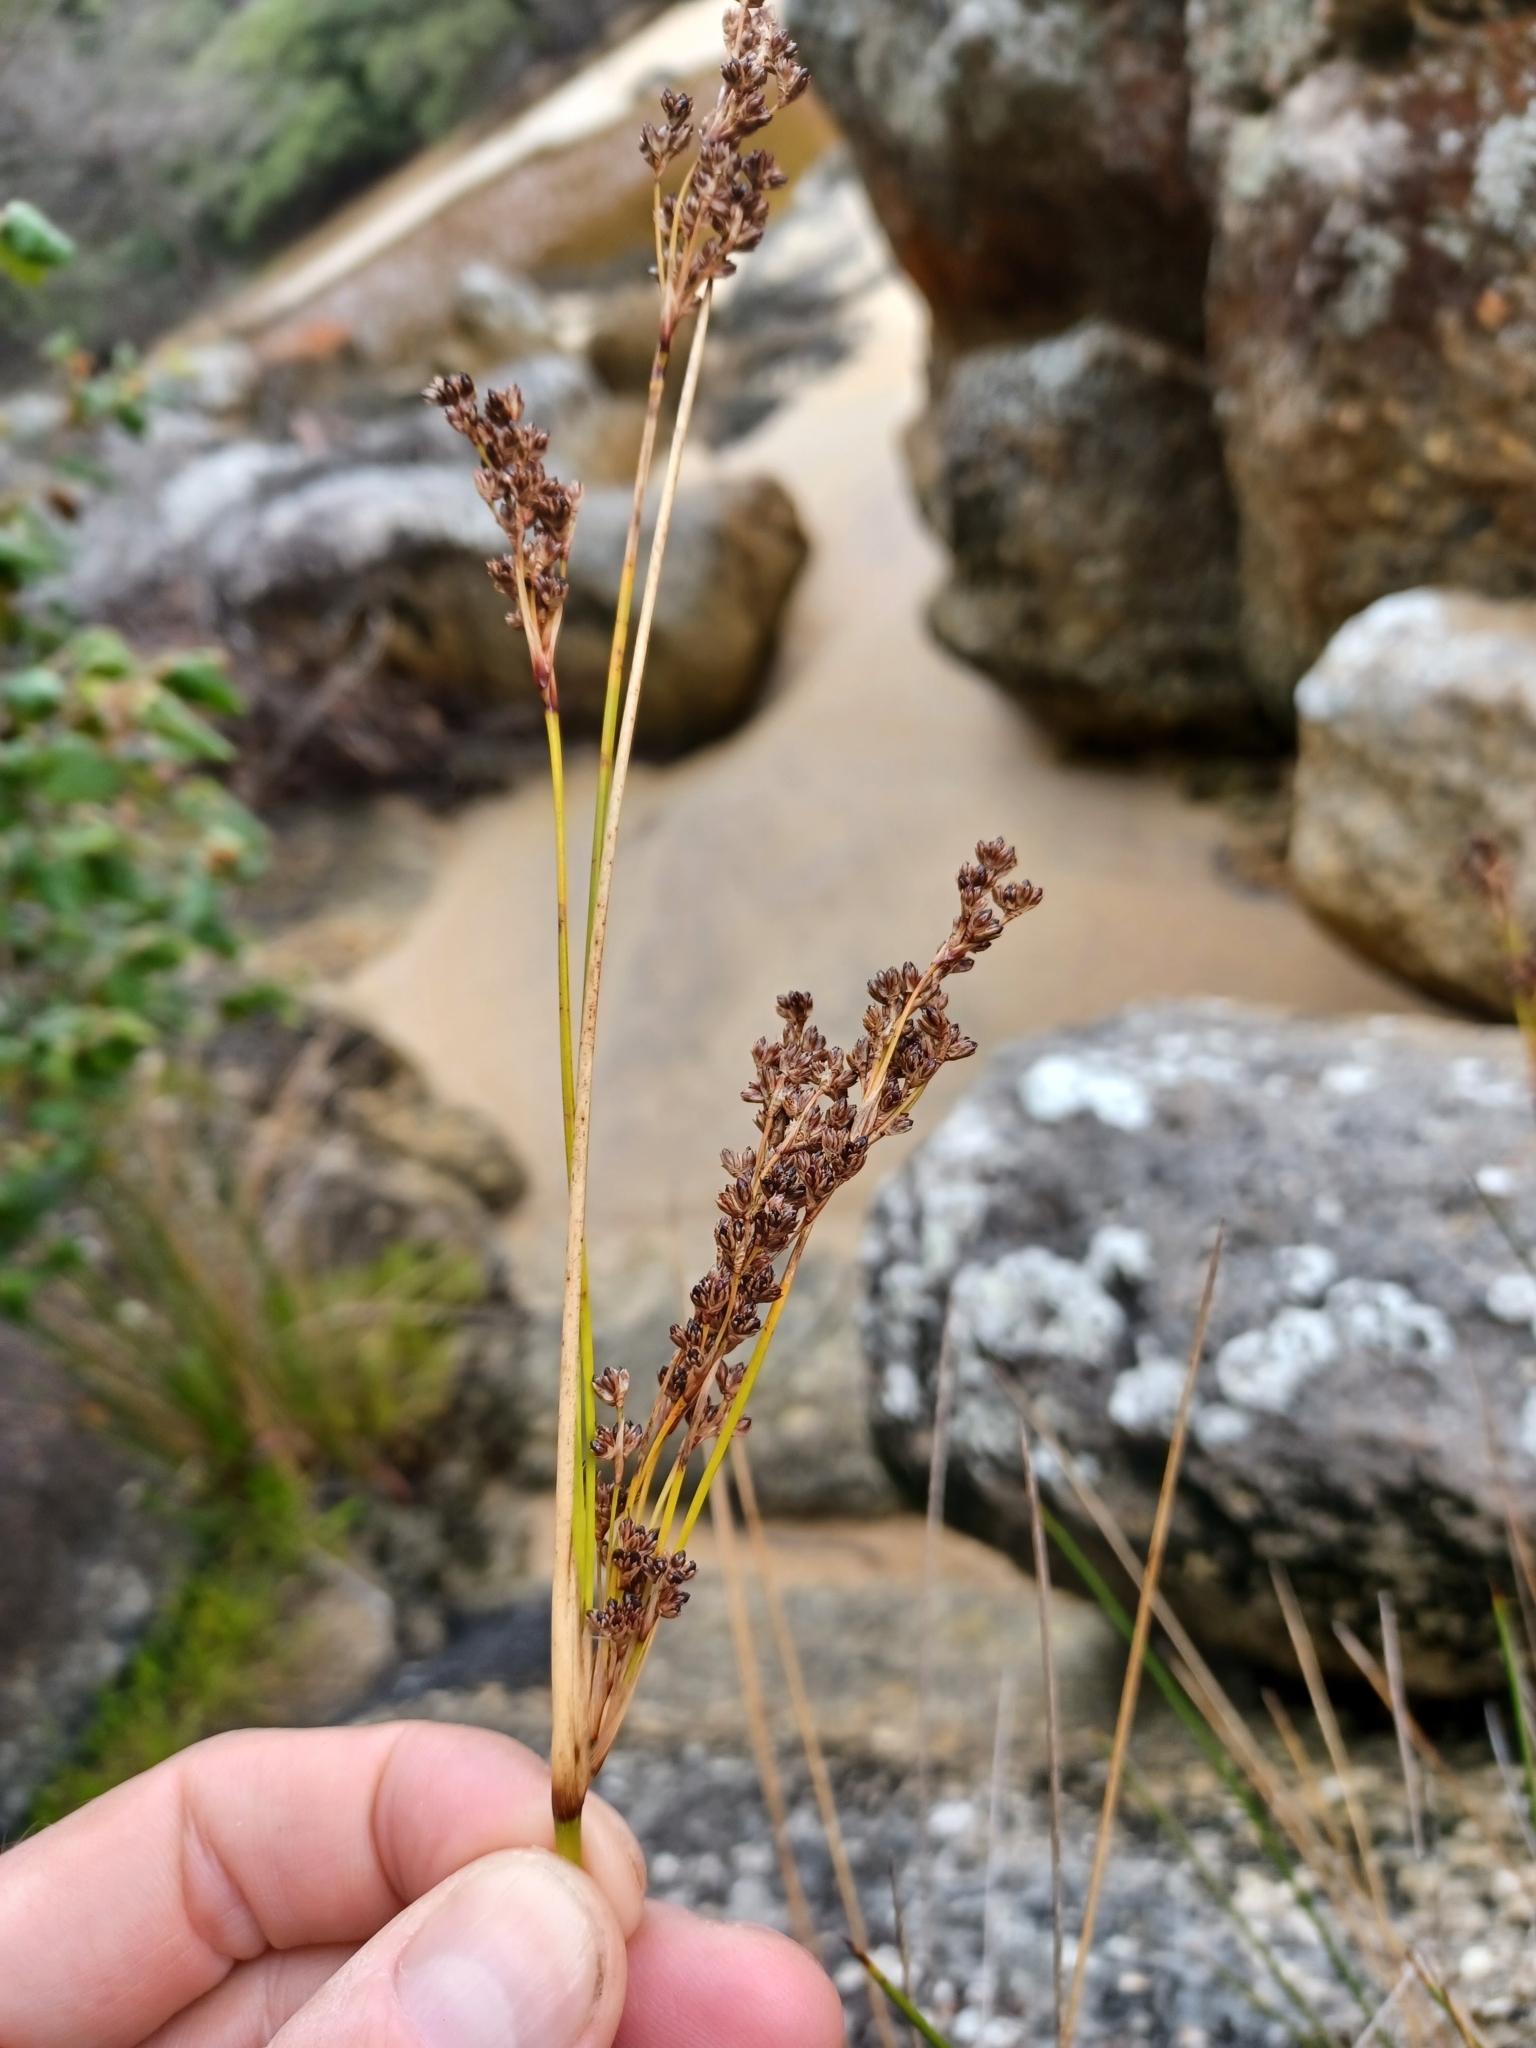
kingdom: Plantae
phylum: Tracheophyta
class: Liliopsida
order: Poales
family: Juncaceae
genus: Juncus
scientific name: Juncus kraussii
